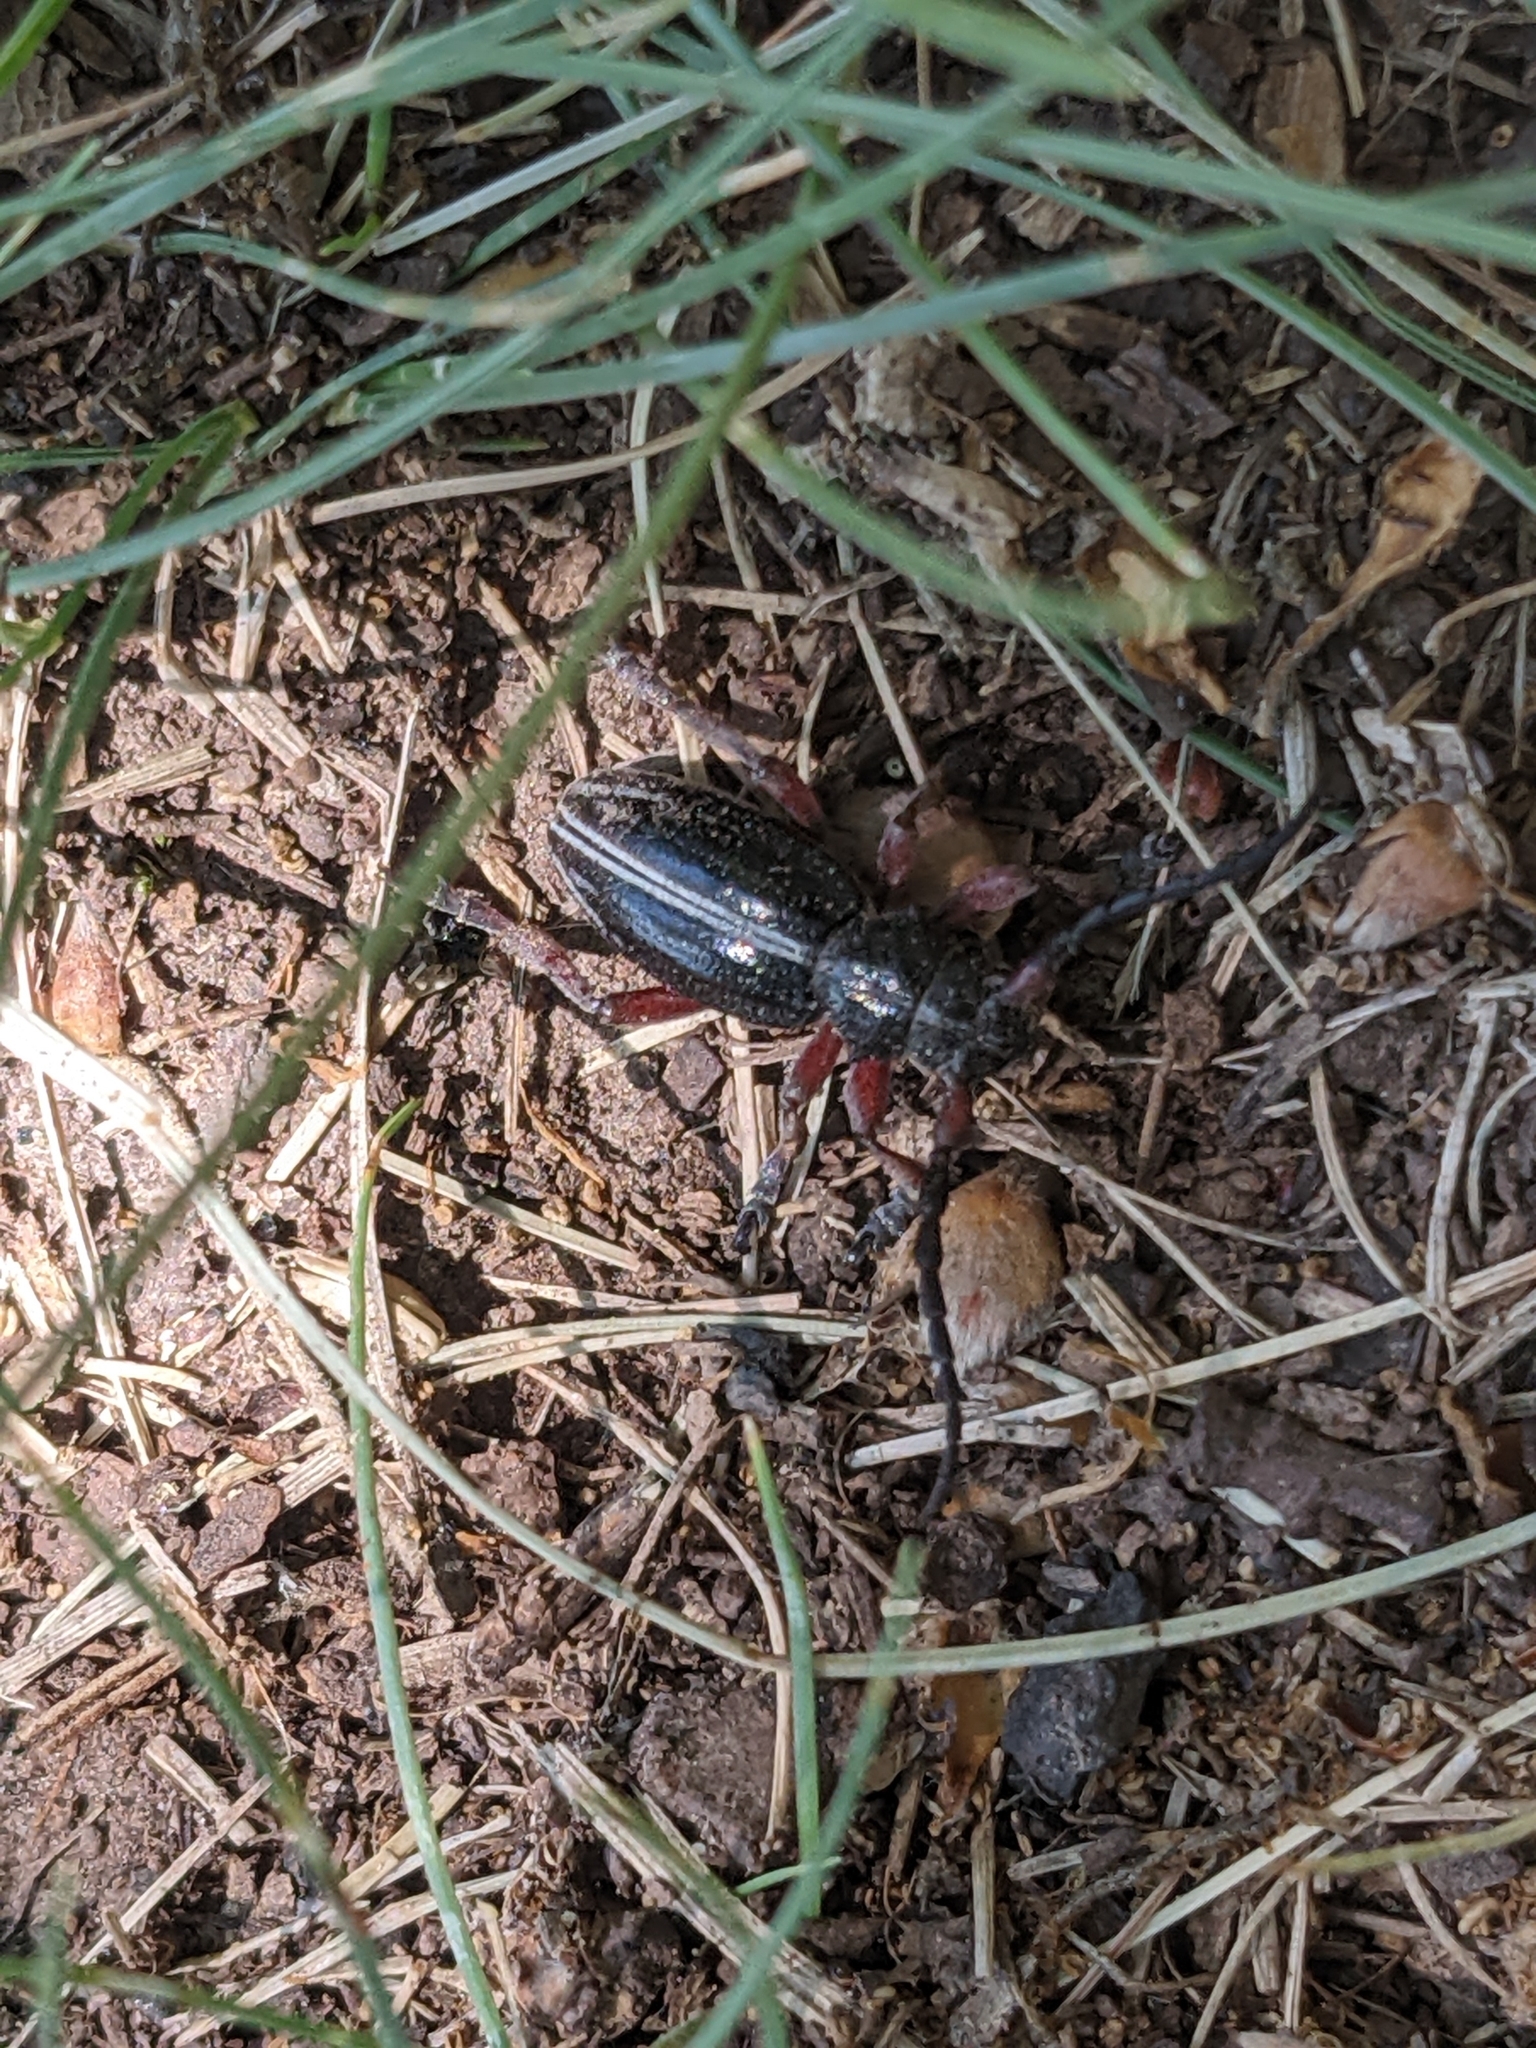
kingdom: Animalia
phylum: Arthropoda
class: Insecta
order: Coleoptera
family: Cerambycidae
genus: Dorcadion
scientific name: Dorcadion pedestre
